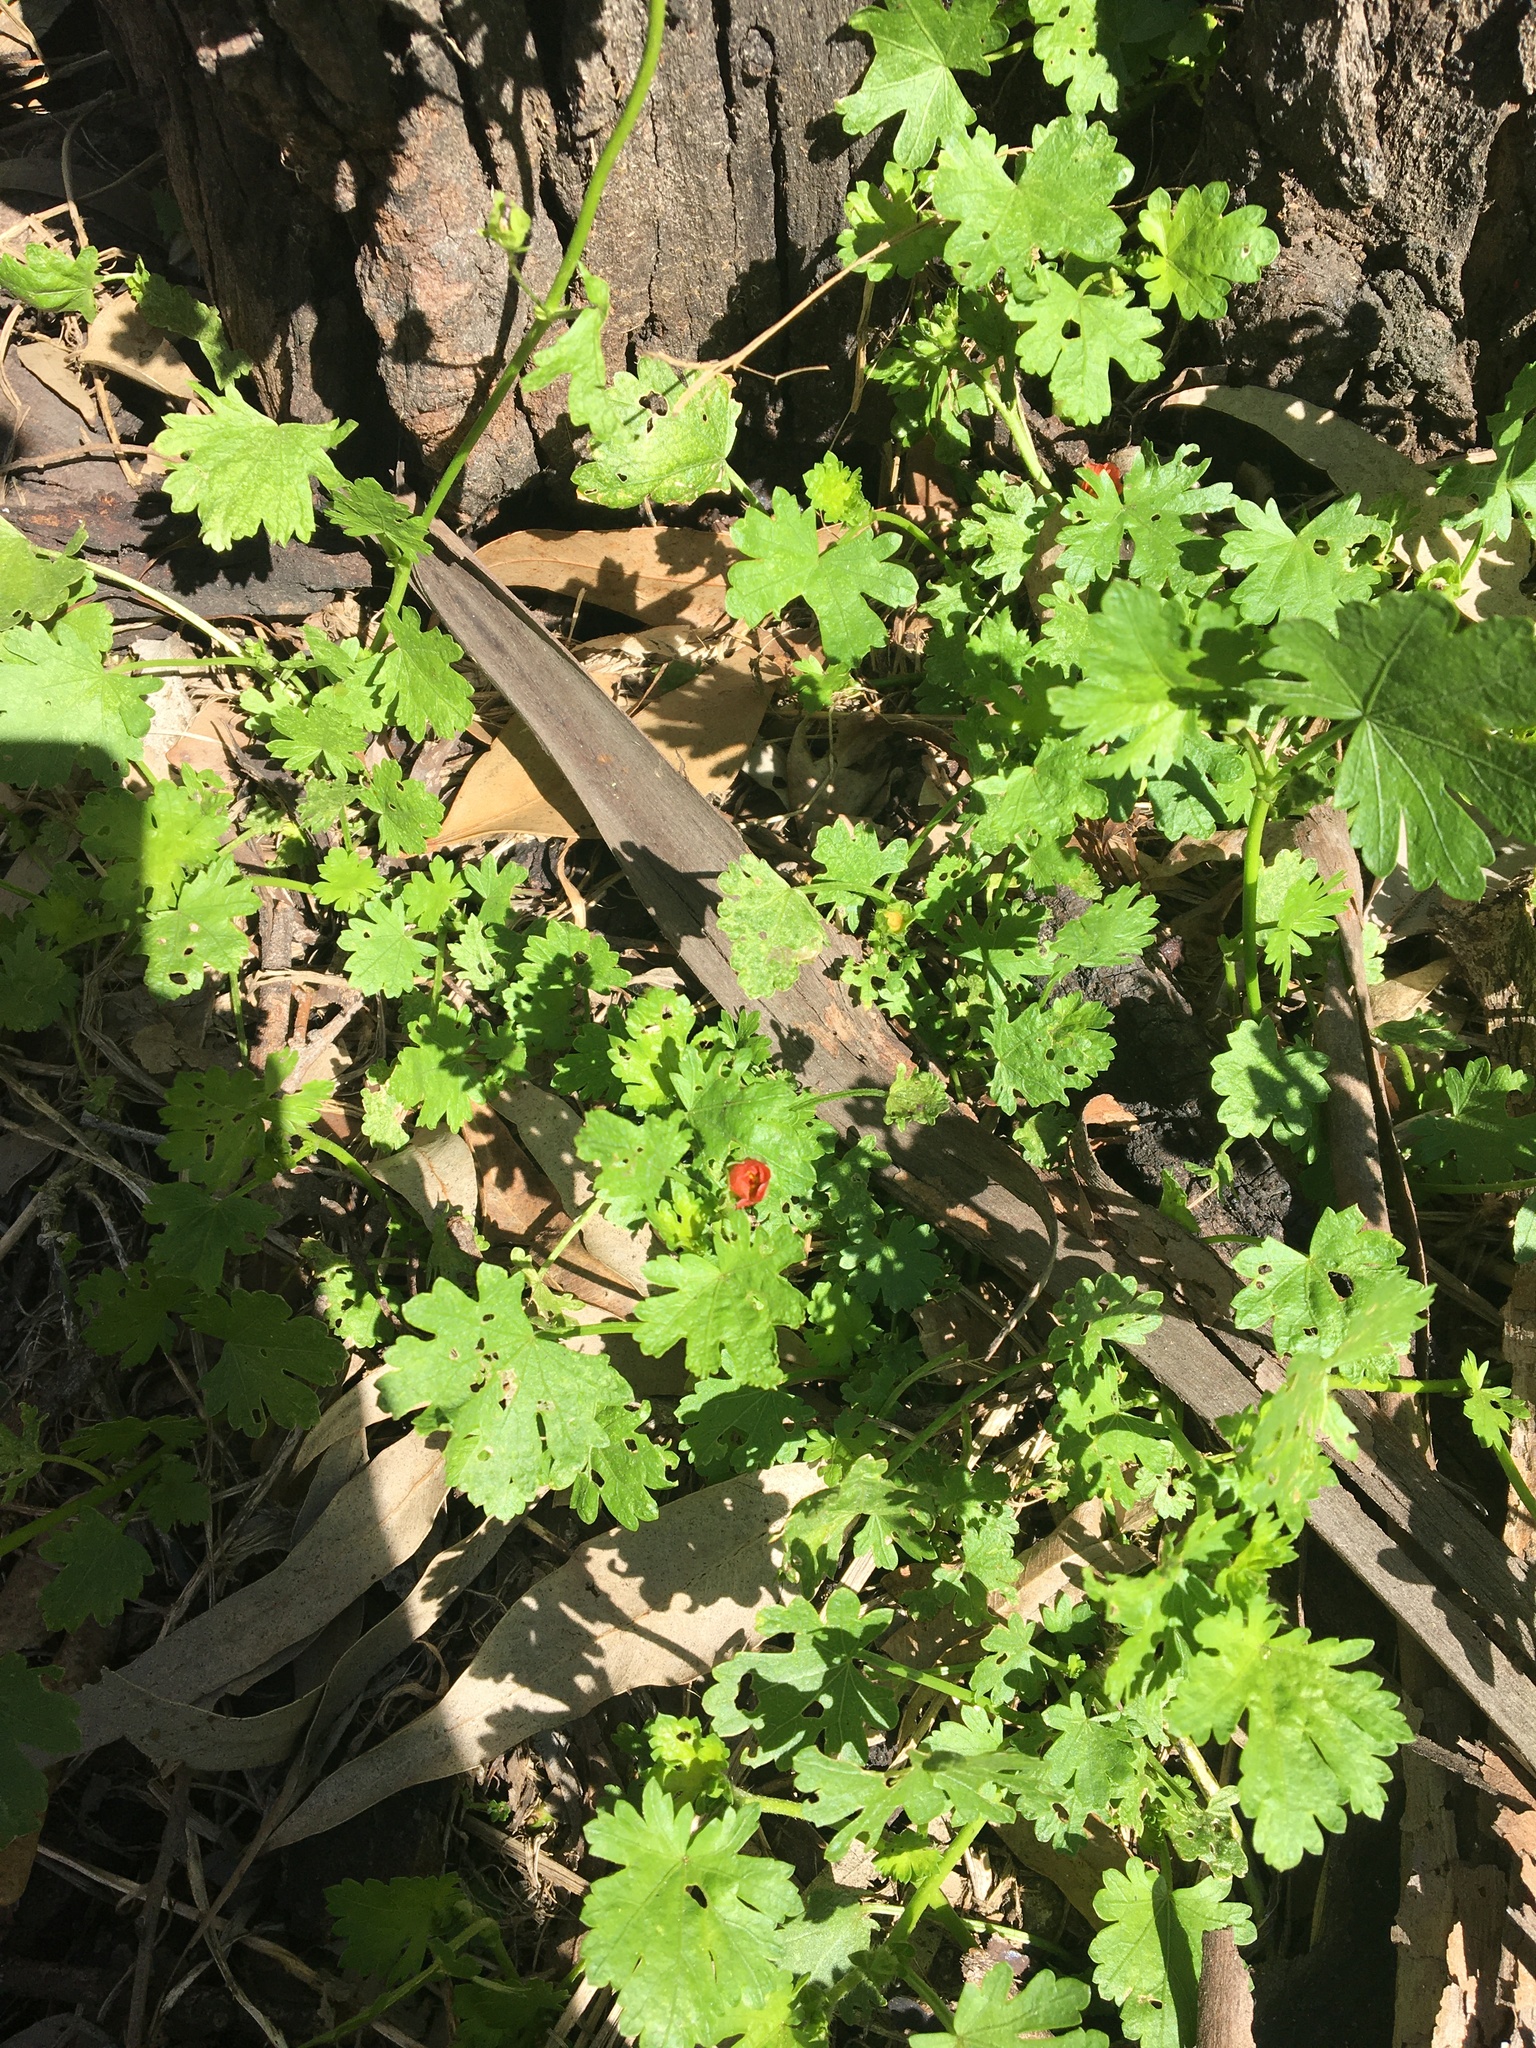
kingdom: Plantae
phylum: Tracheophyta
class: Magnoliopsida
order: Malvales
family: Malvaceae
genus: Modiola
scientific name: Modiola caroliniana
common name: Carolina bristlemallow
